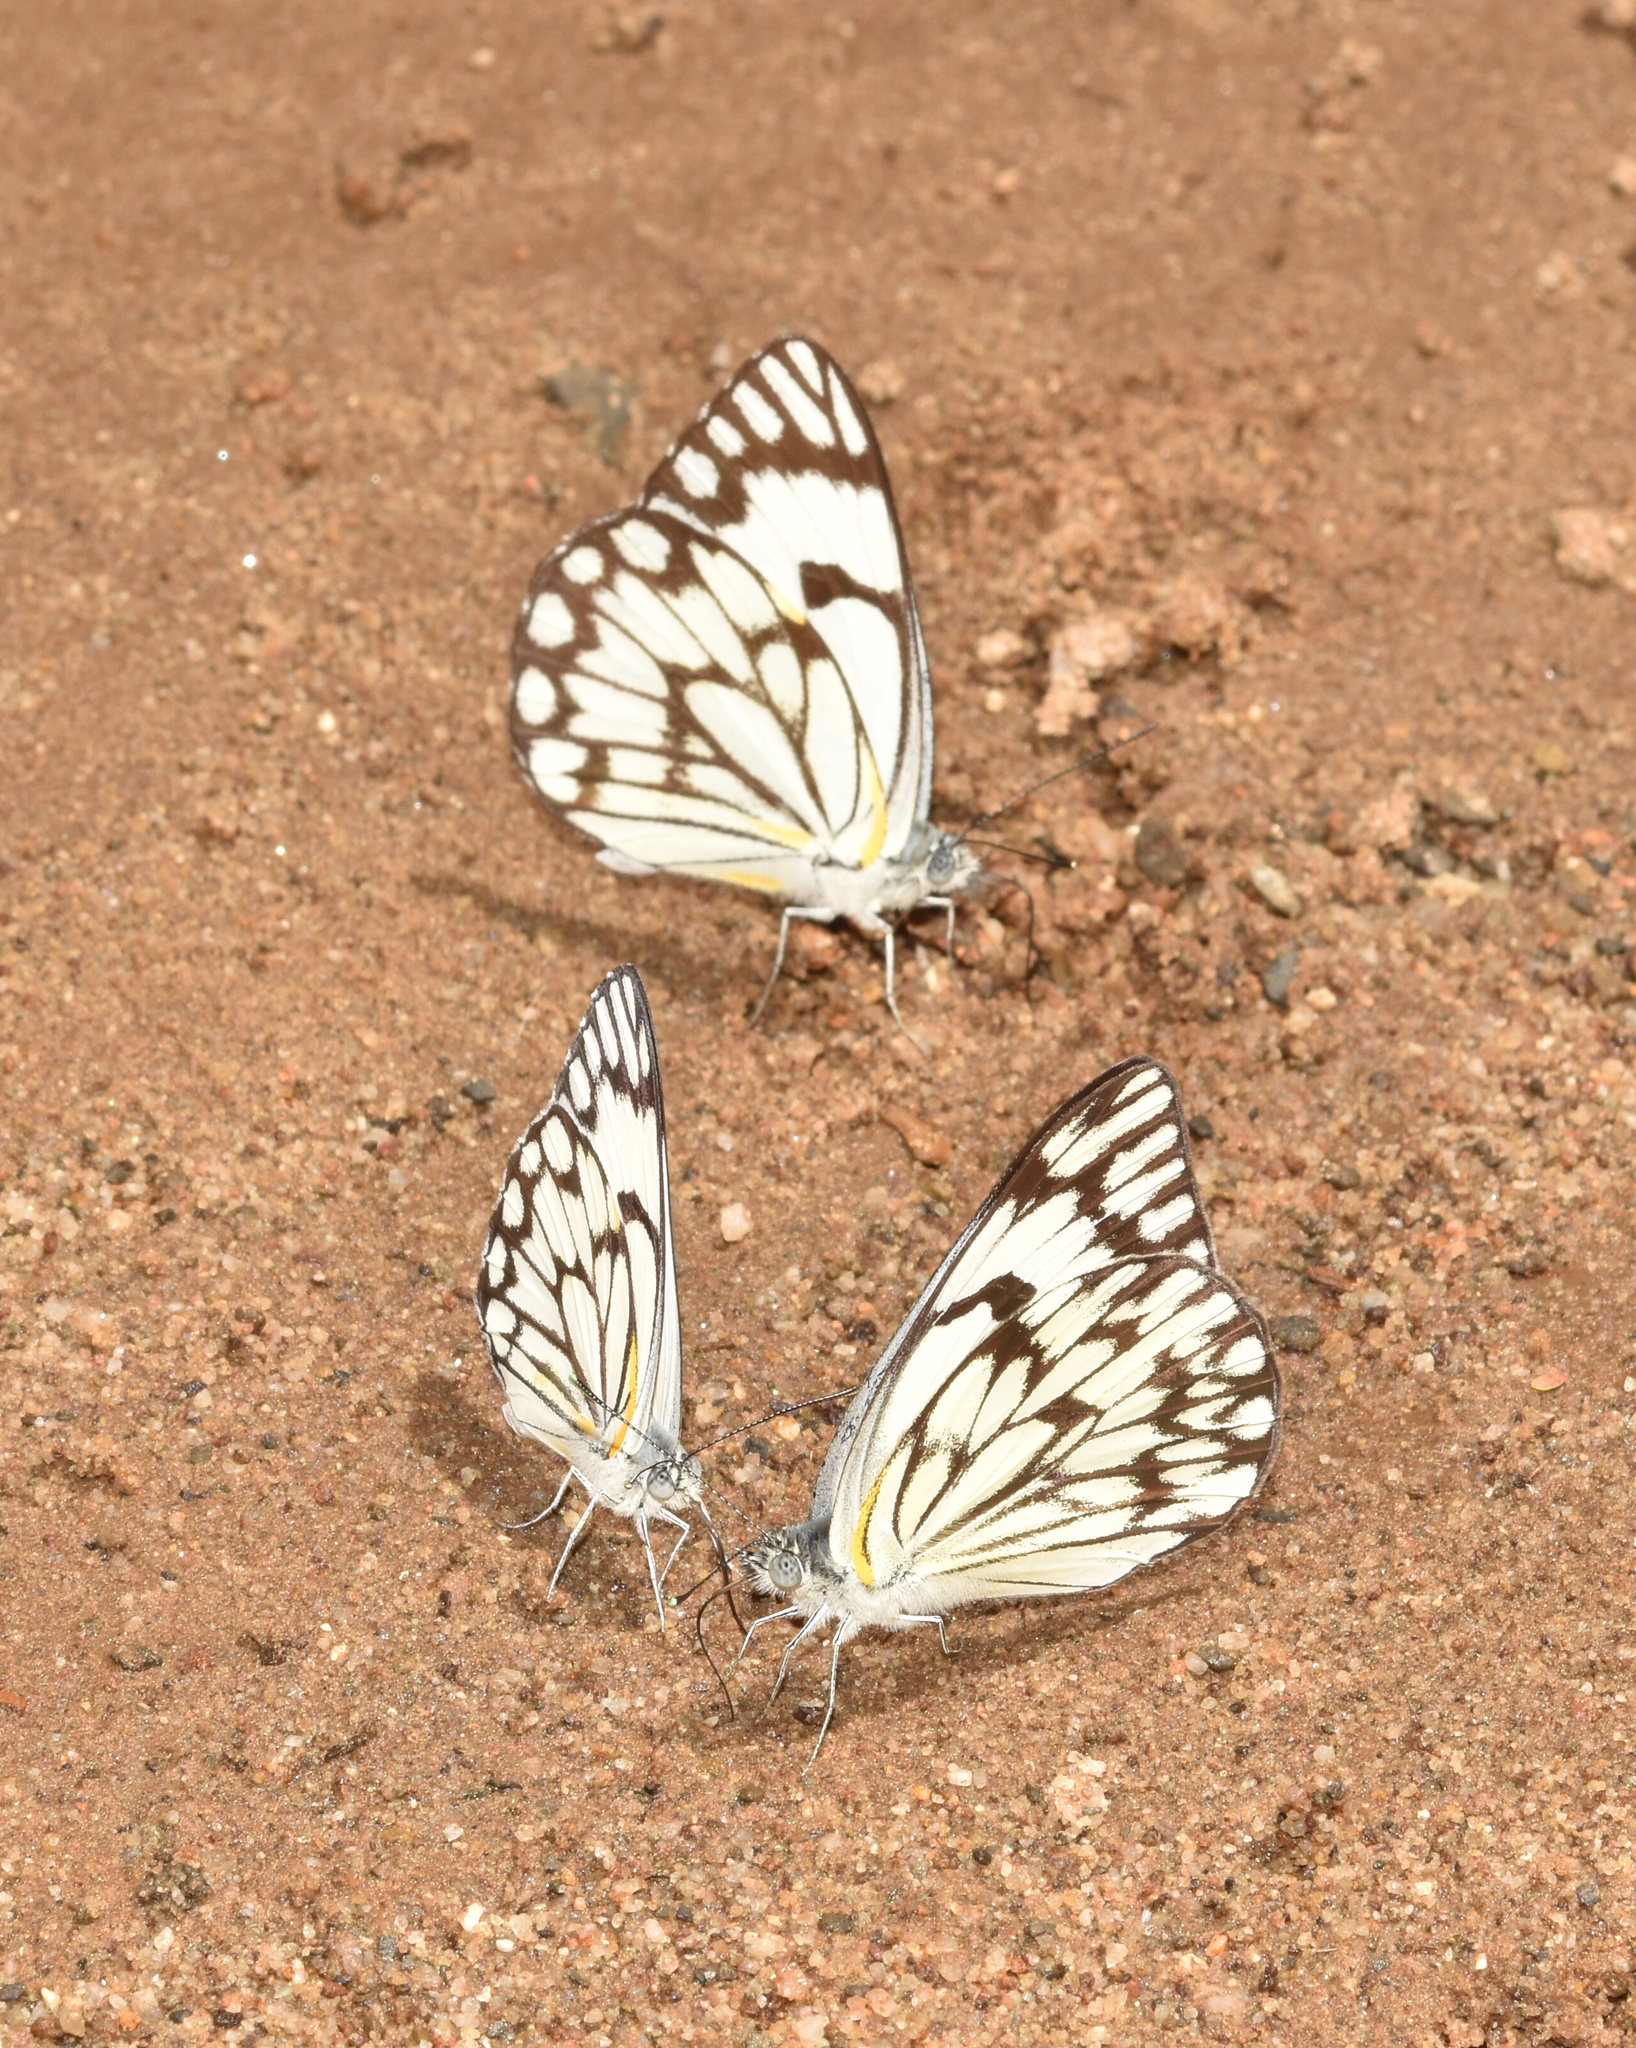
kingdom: Animalia
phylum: Arthropoda
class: Insecta
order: Lepidoptera
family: Pieridae
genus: Belenois
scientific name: Belenois aurota
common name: Brown-veined white
